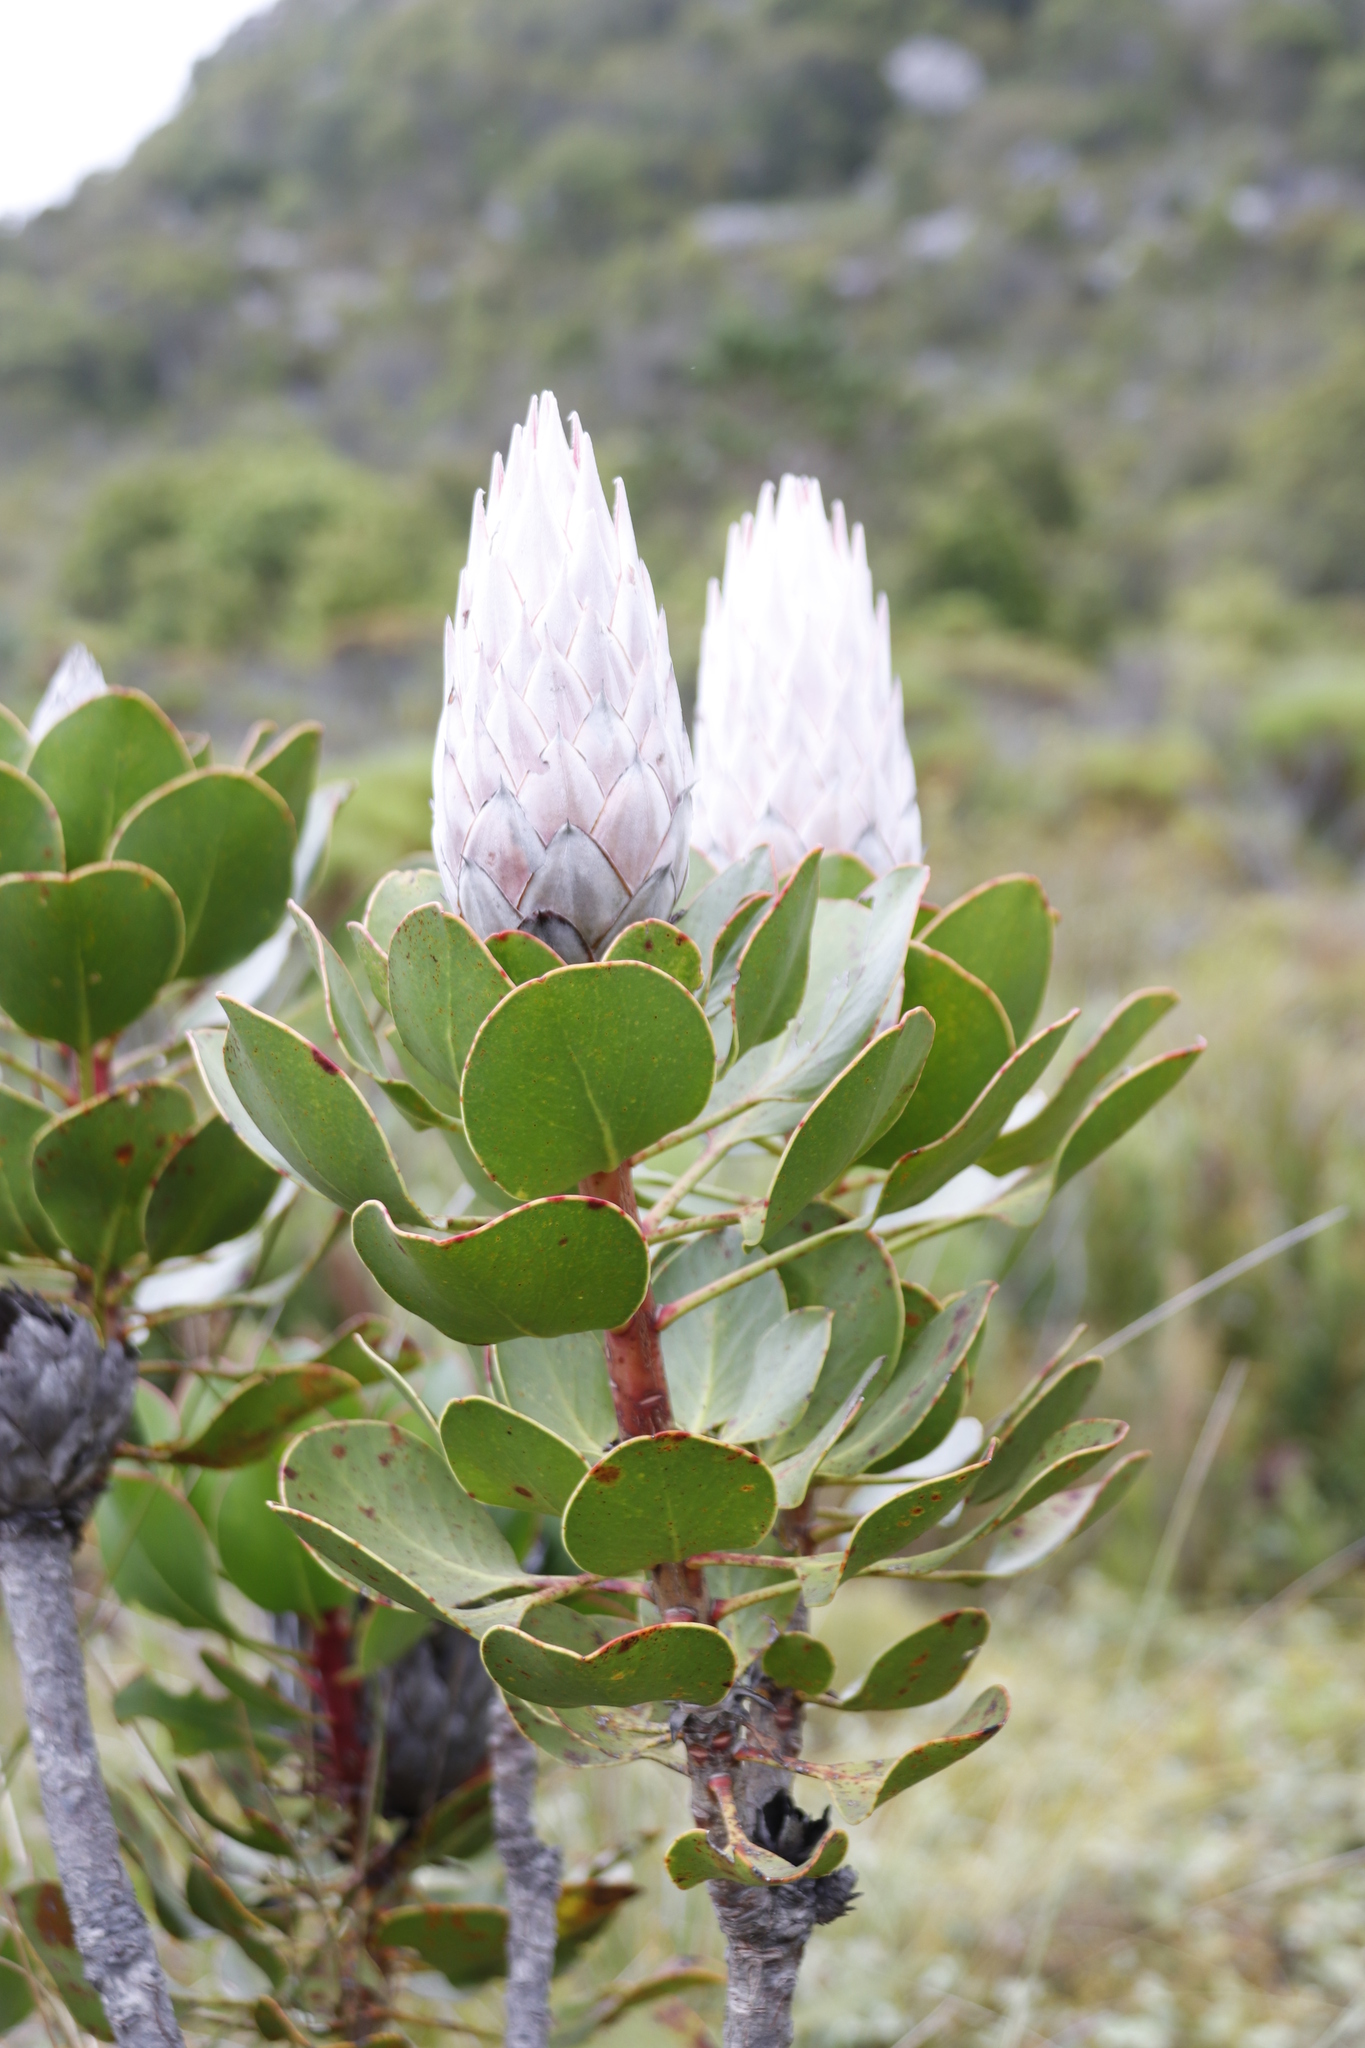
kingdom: Plantae
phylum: Tracheophyta
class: Magnoliopsida
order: Proteales
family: Proteaceae
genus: Protea
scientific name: Protea cynaroides
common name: King protea
